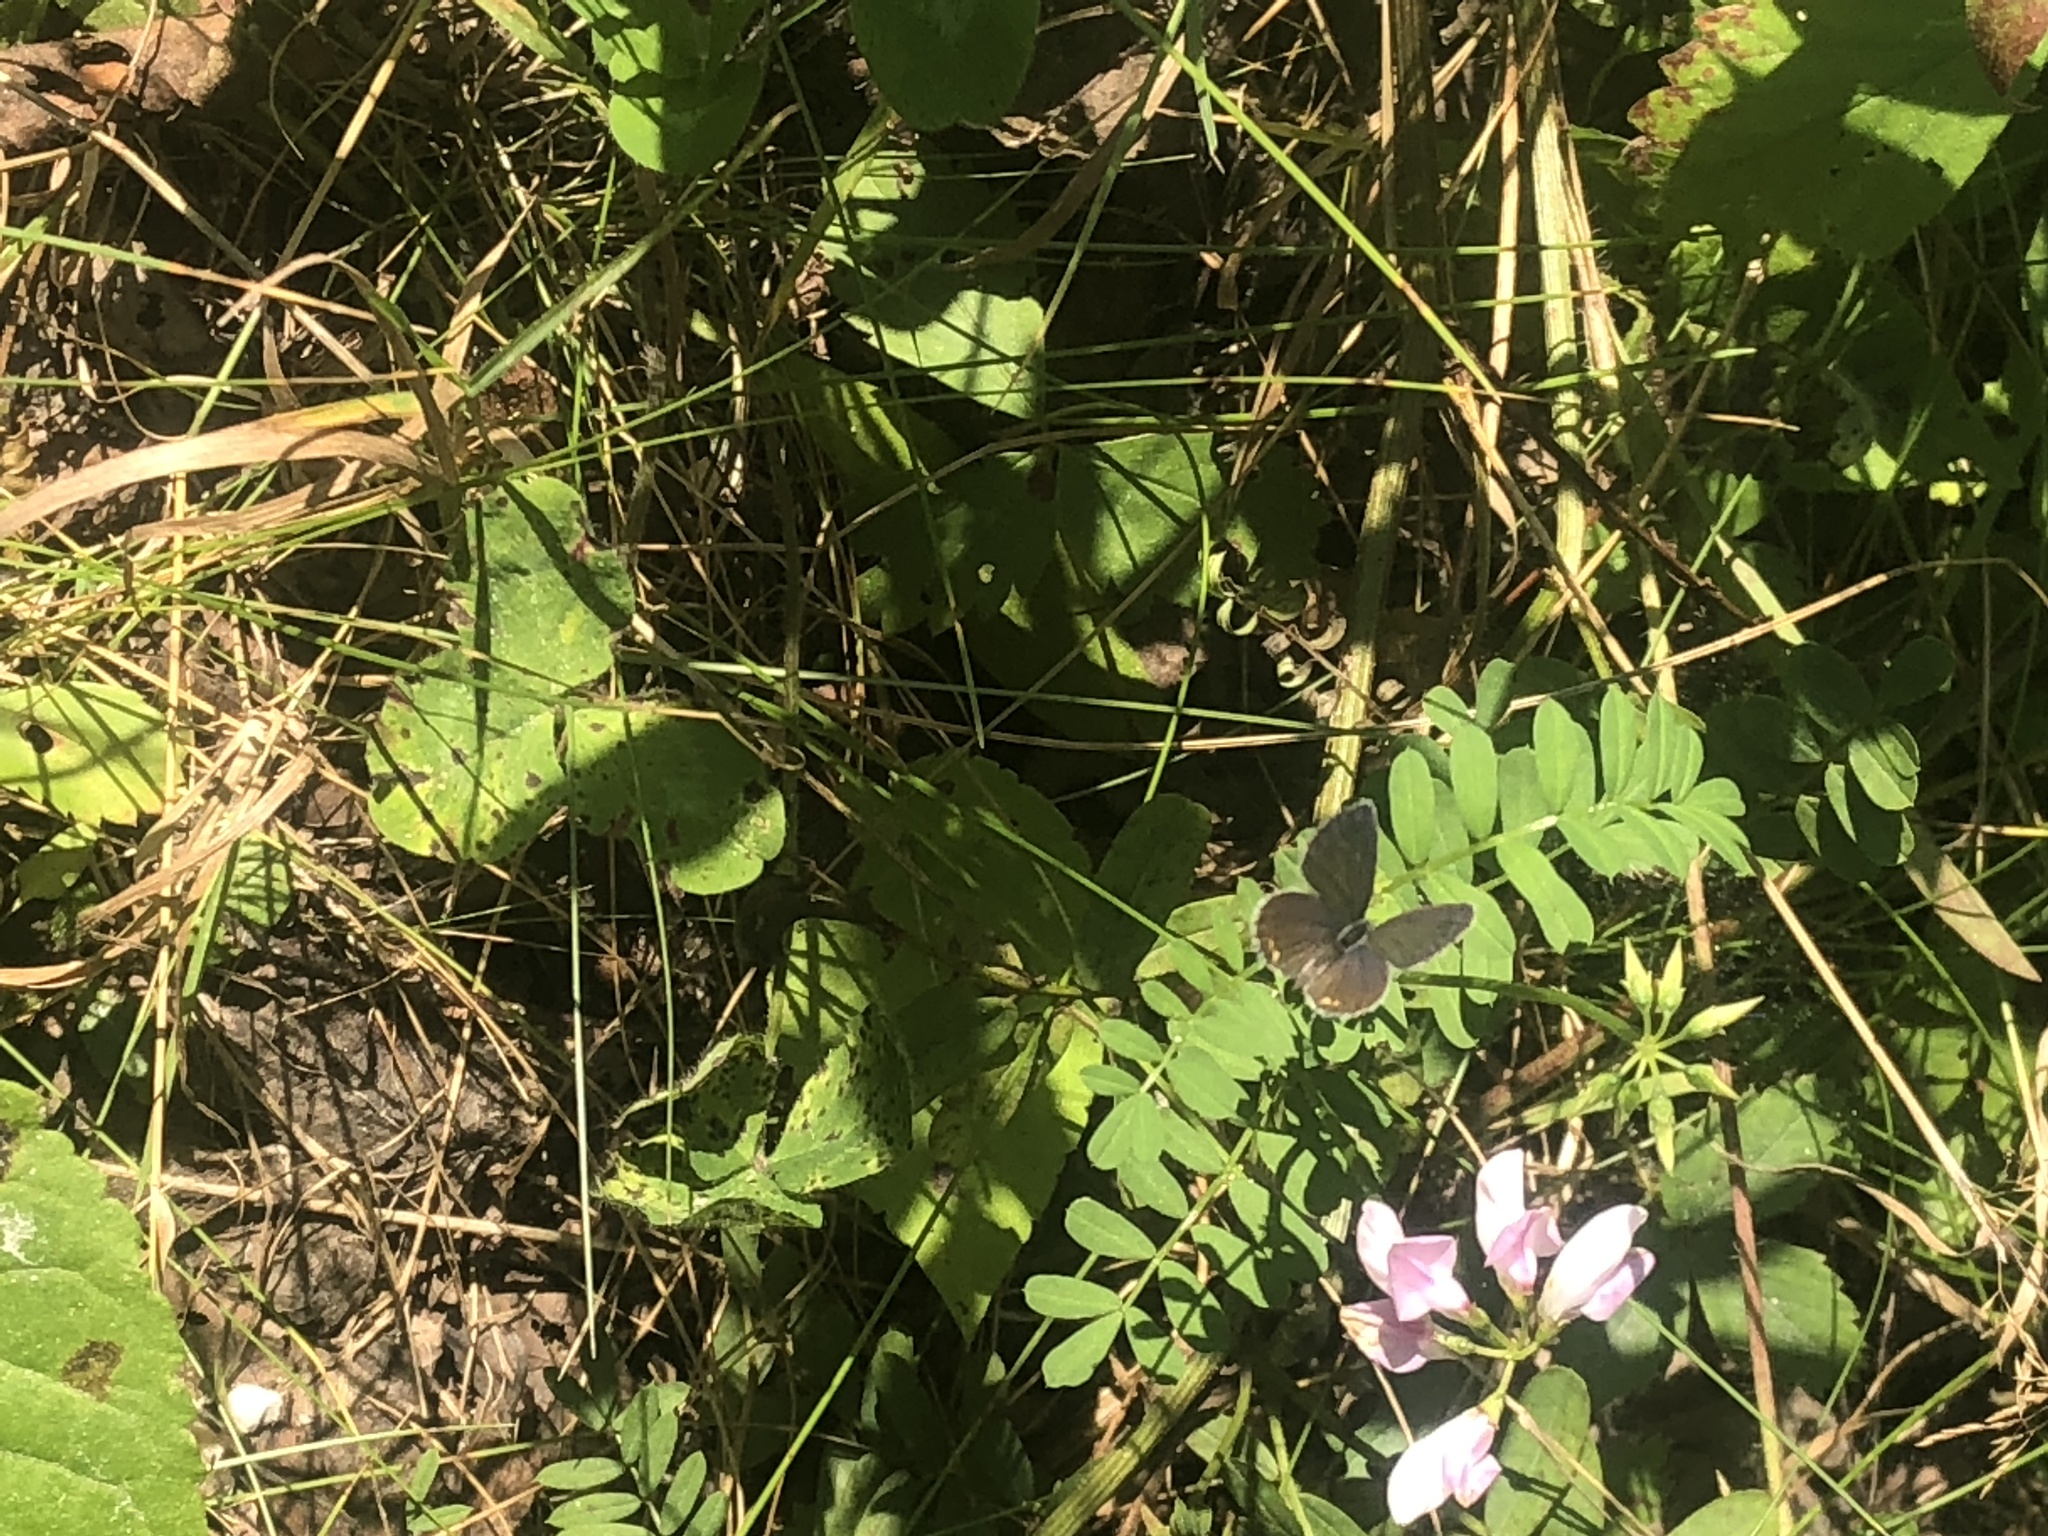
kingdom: Animalia
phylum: Arthropoda
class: Insecta
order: Lepidoptera
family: Lycaenidae
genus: Elkalyce
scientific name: Elkalyce comyntas
